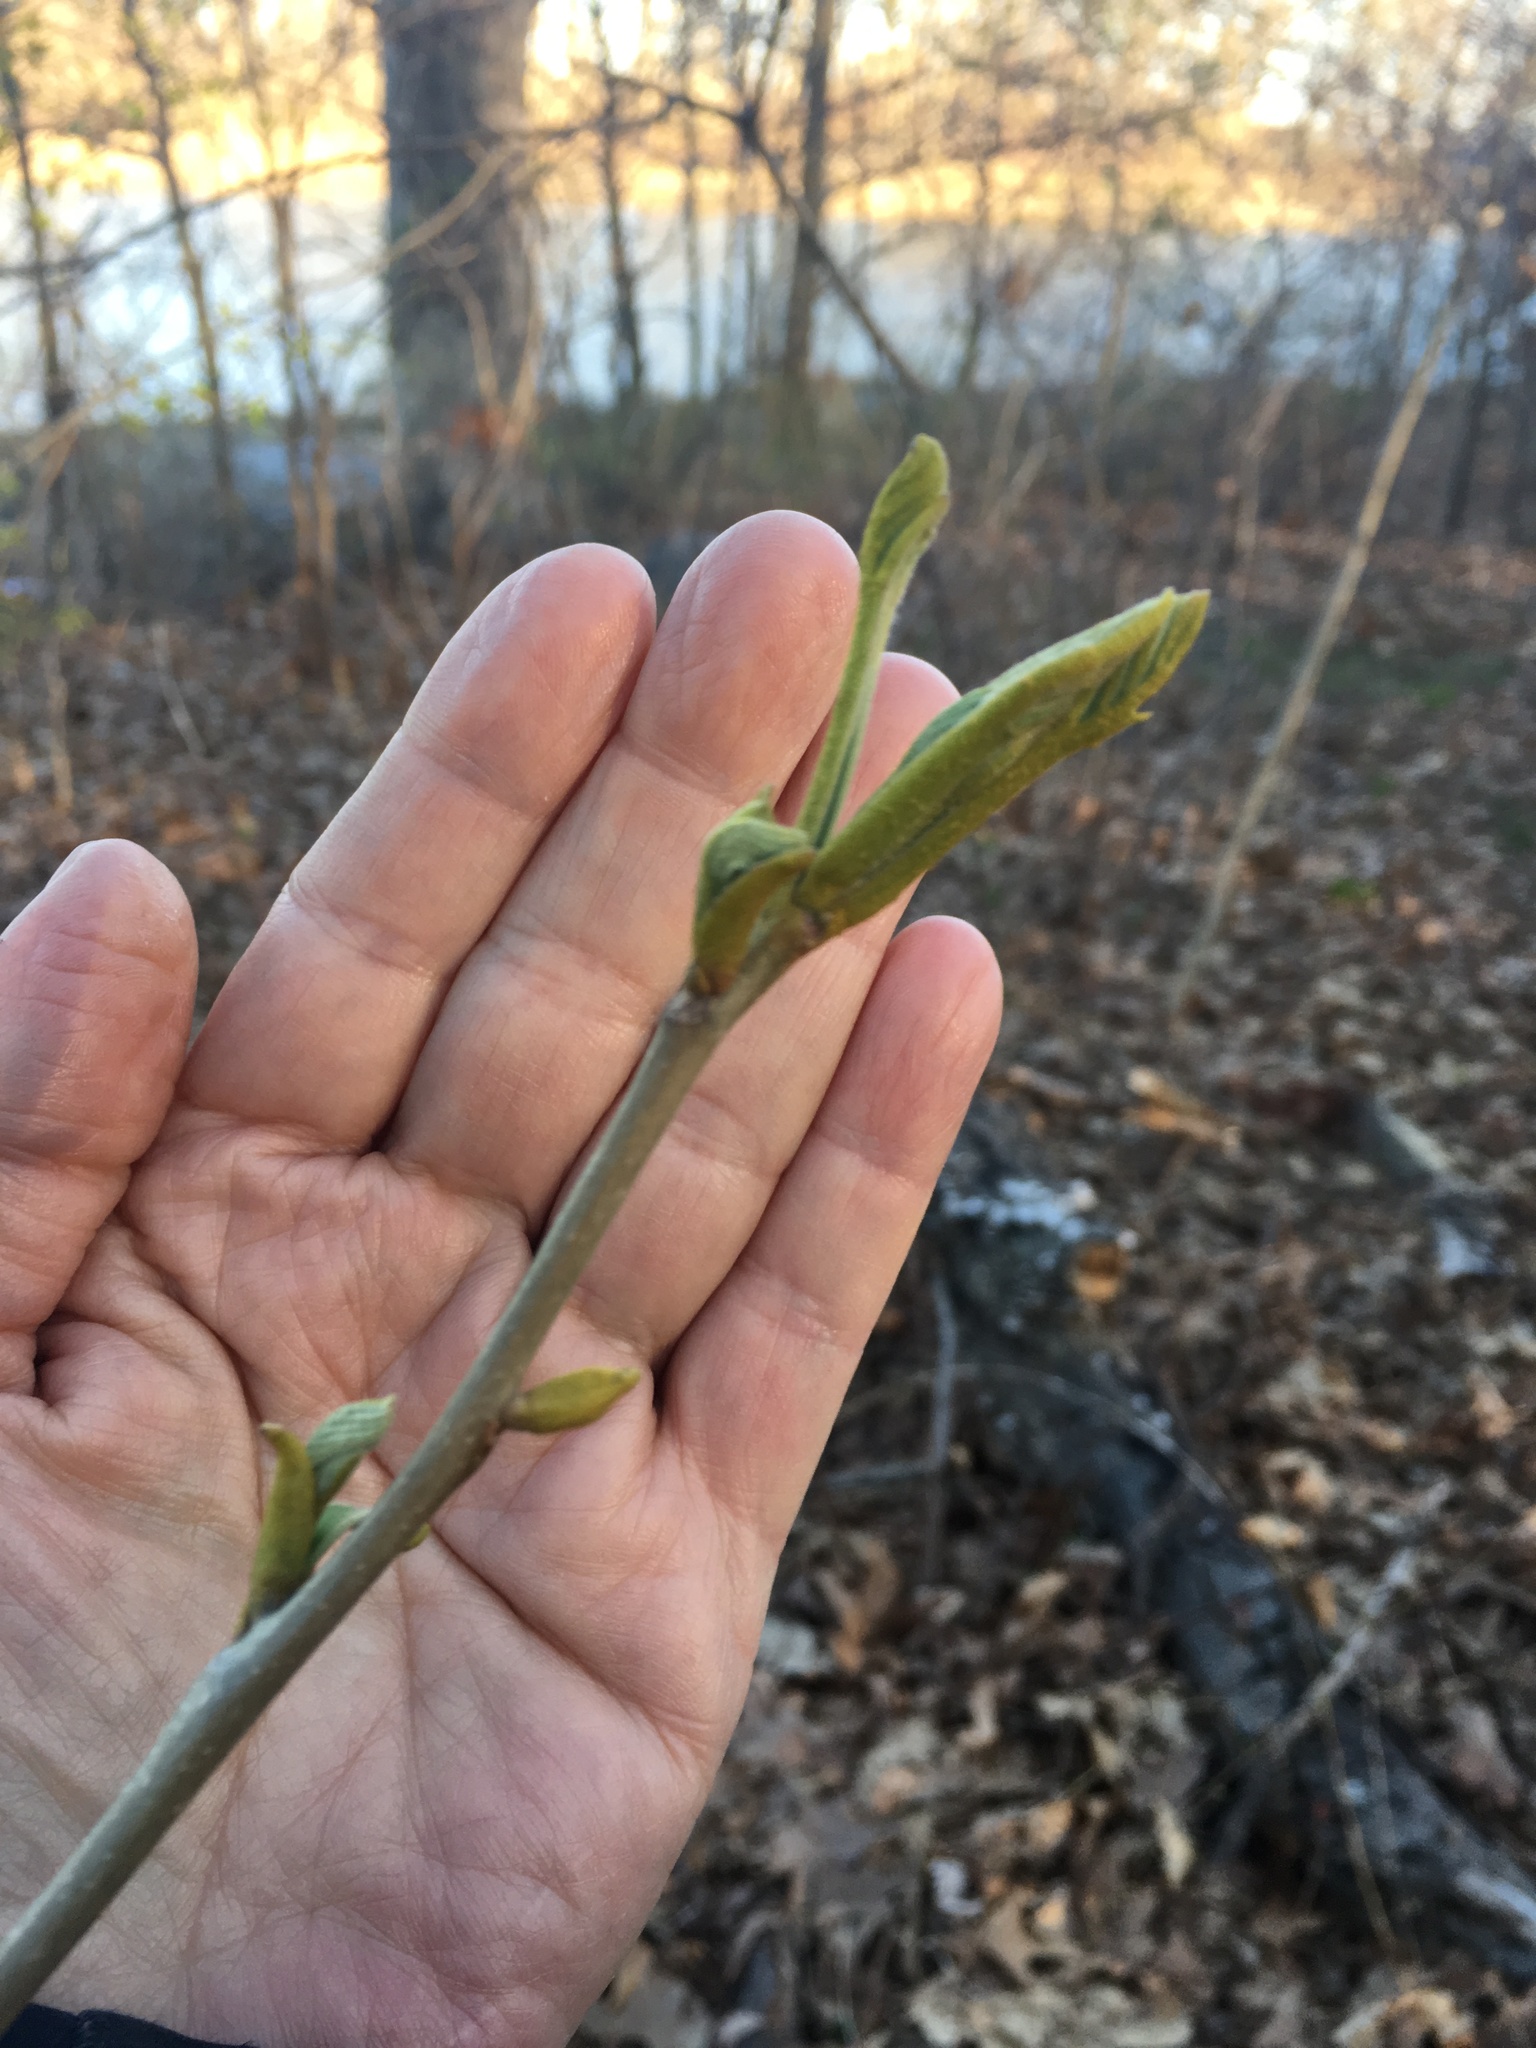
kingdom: Plantae
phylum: Tracheophyta
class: Magnoliopsida
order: Fagales
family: Juglandaceae
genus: Carya
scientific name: Carya cordiformis
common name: Bitternut hickory
